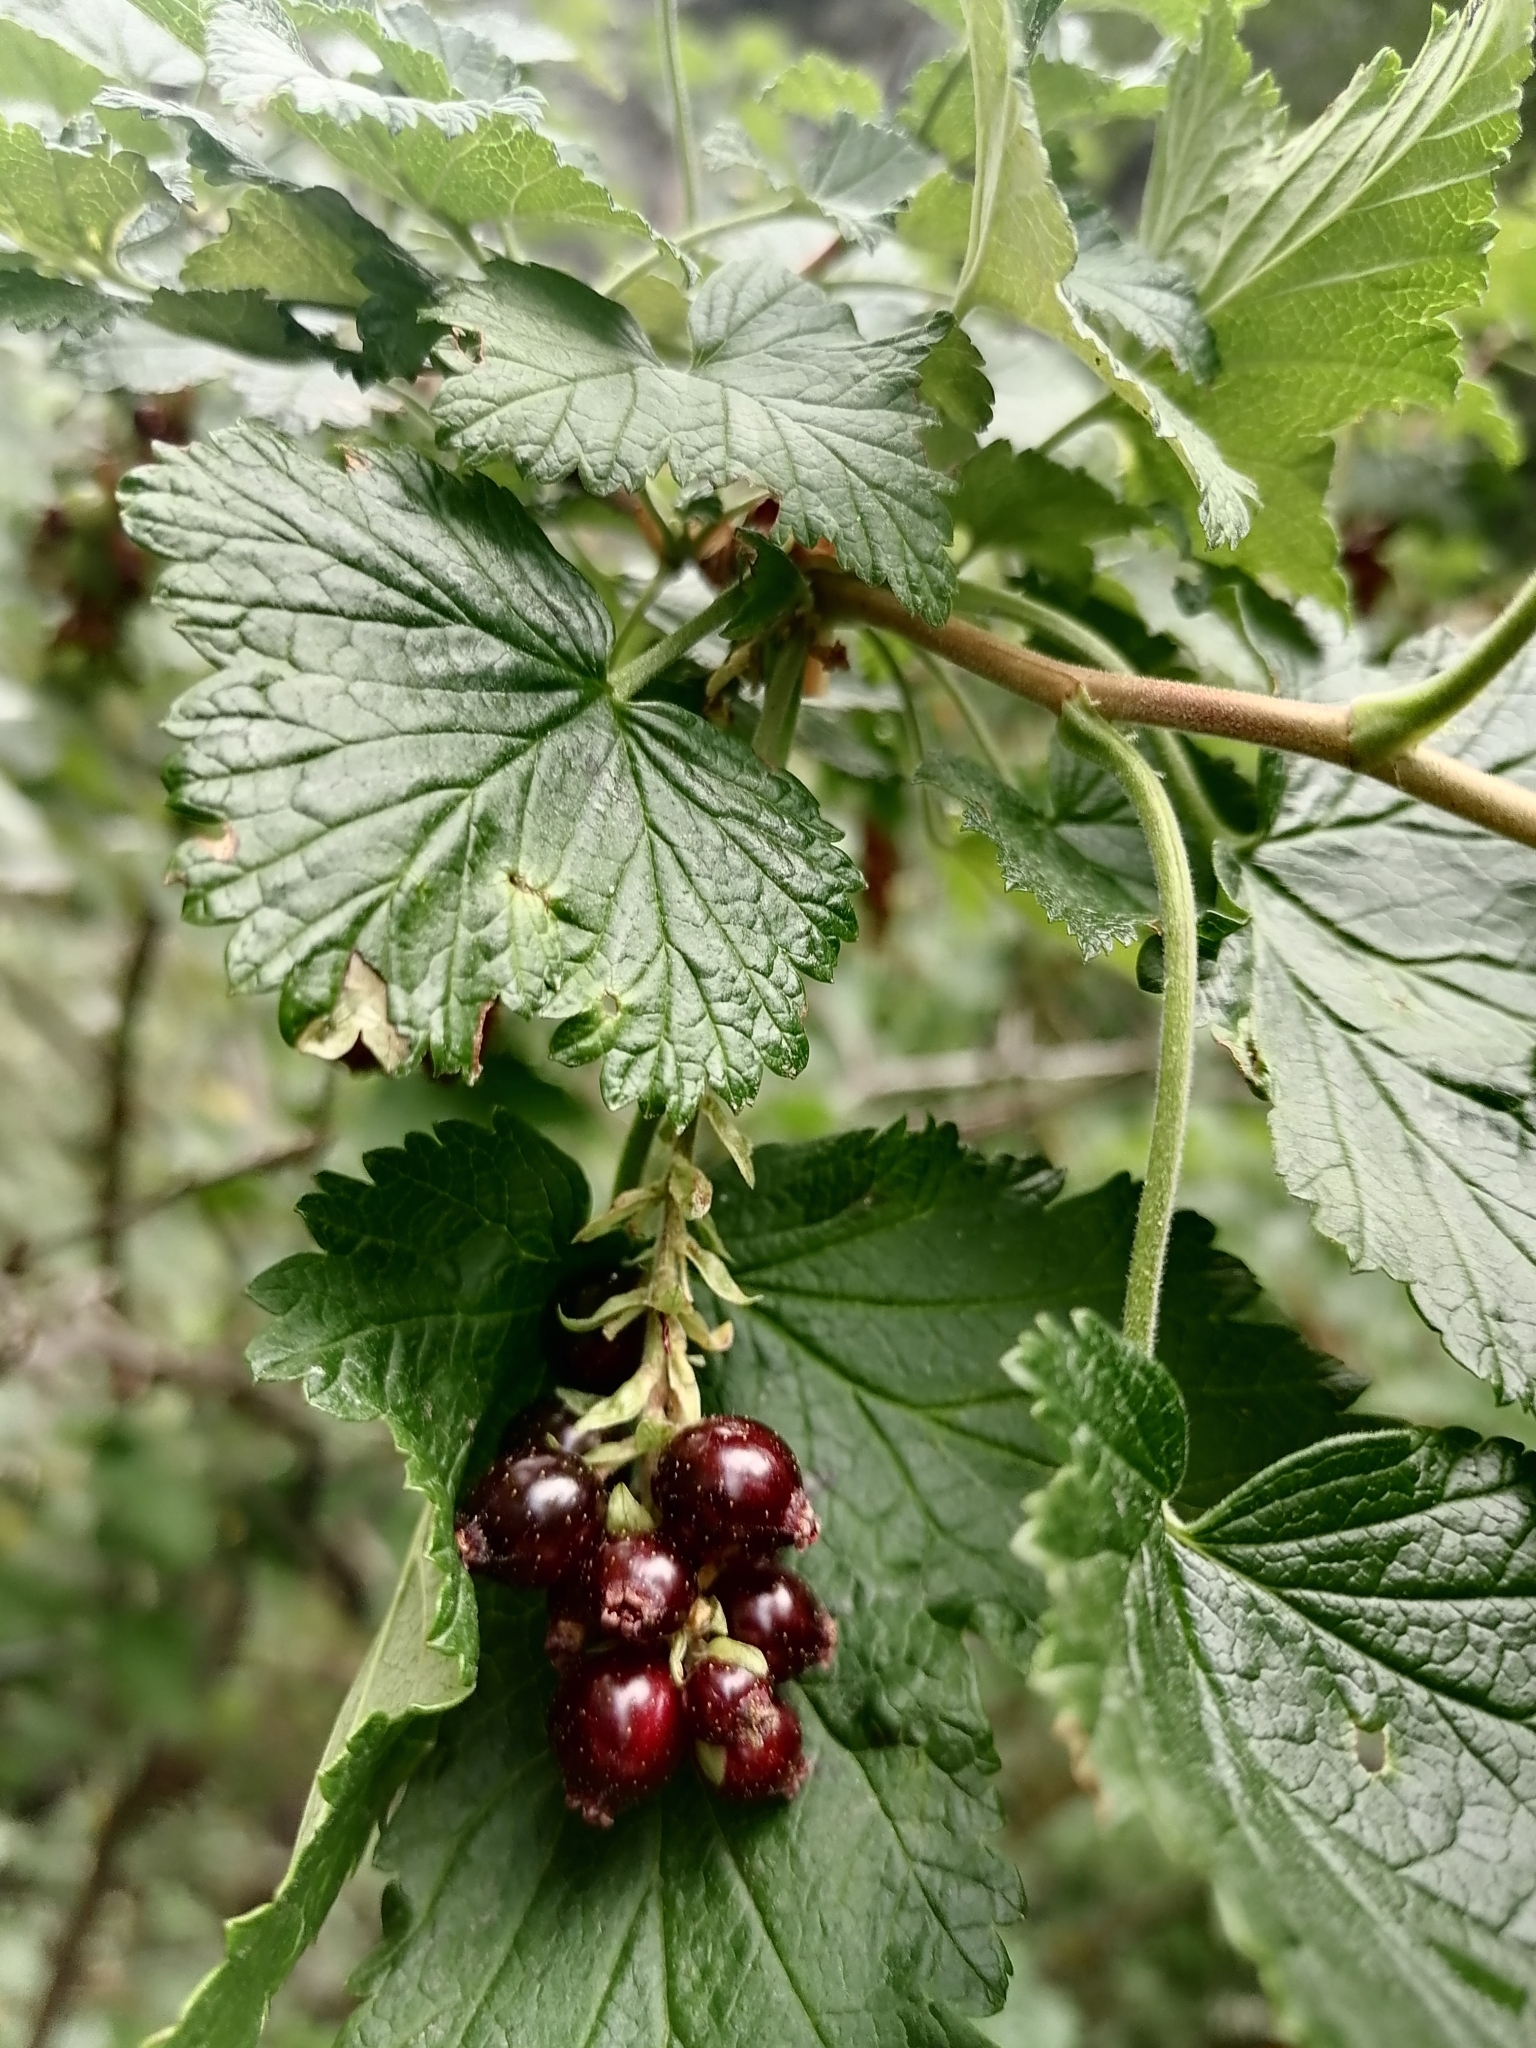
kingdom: Plantae
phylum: Tracheophyta
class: Magnoliopsida
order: Saxifragales
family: Grossulariaceae
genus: Ribes
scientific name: Ribes magellanicum
